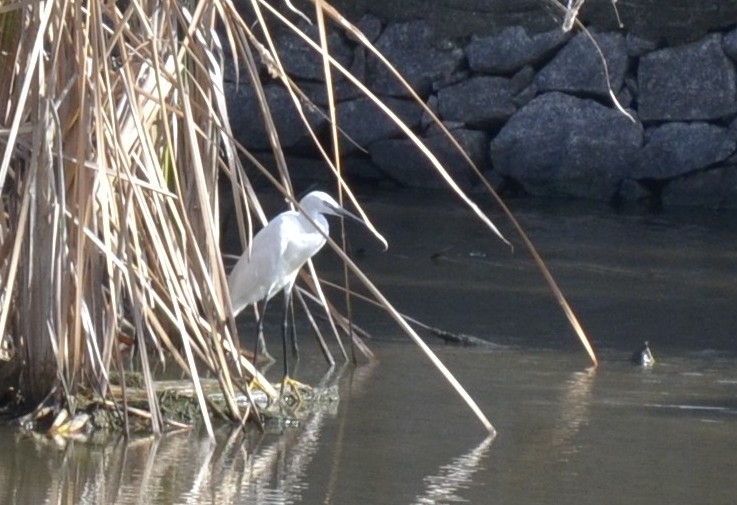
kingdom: Animalia
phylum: Chordata
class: Aves
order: Pelecaniformes
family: Ardeidae
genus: Egretta
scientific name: Egretta garzetta
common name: Little egret
